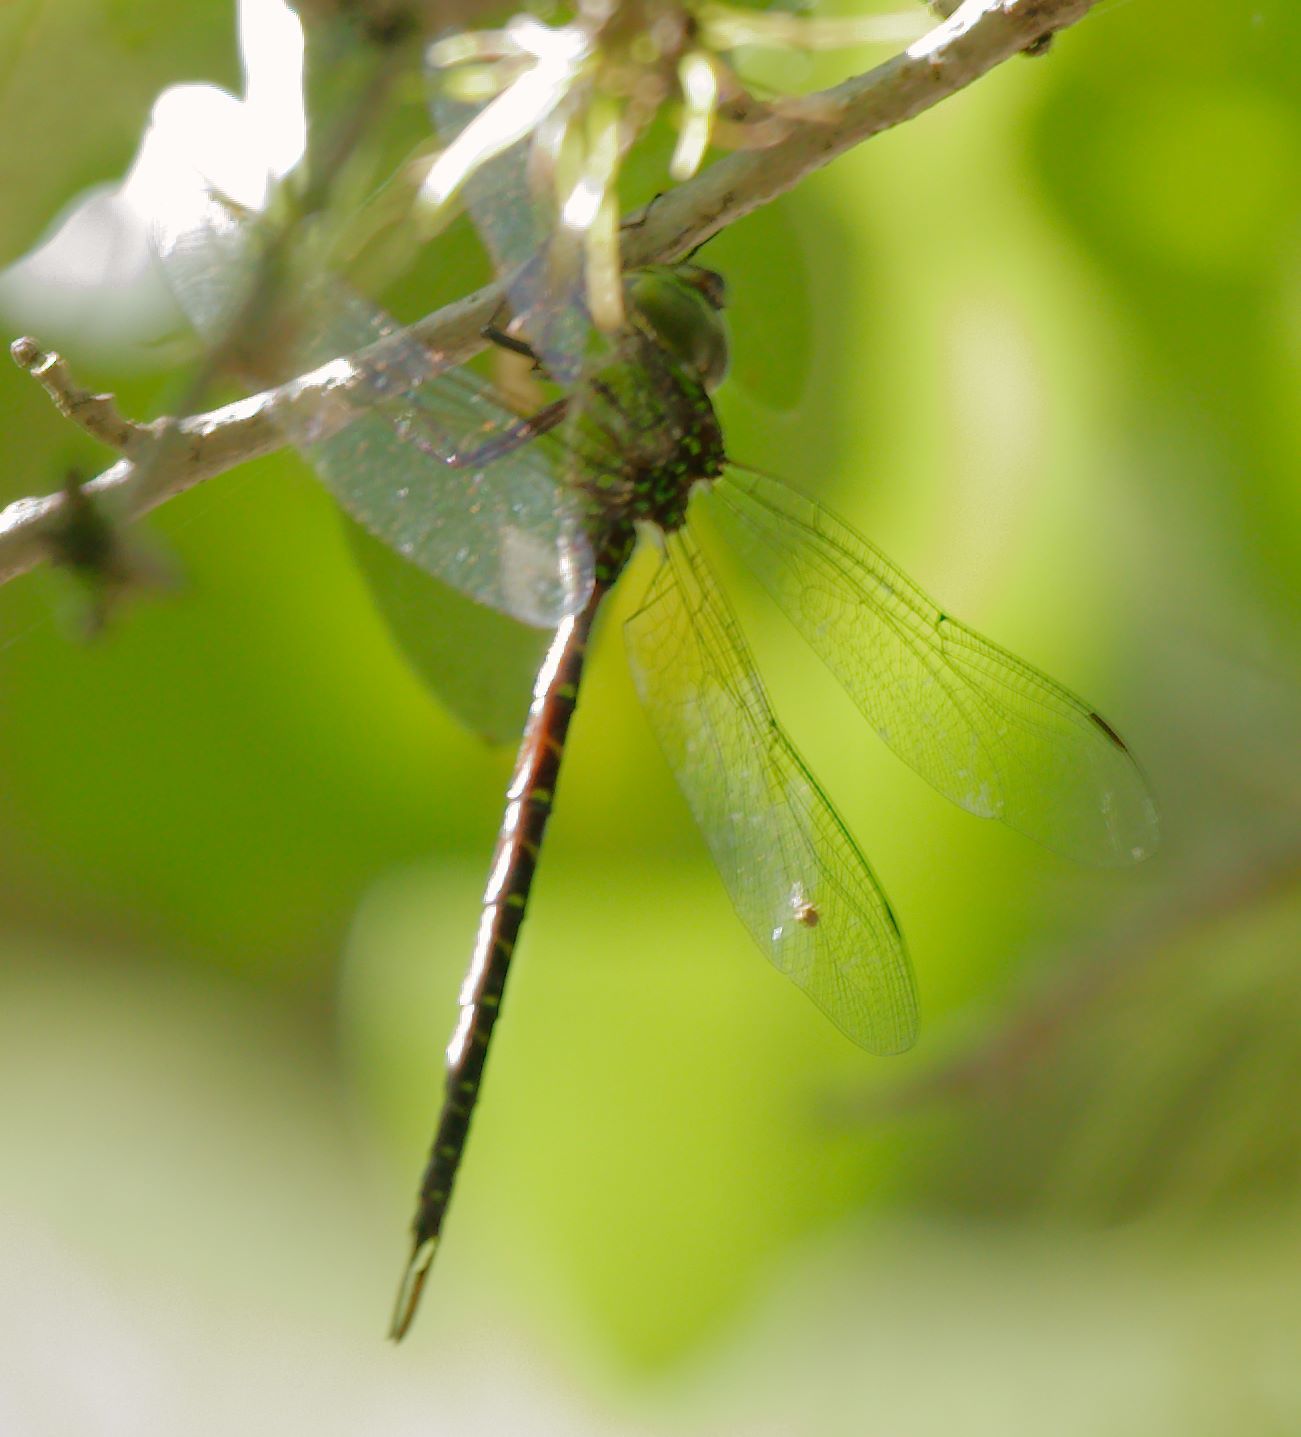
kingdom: Animalia
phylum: Arthropoda
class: Insecta
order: Odonata
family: Aeshnidae
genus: Triacanthagyna
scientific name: Triacanthagyna trifida
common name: Phantom darner
